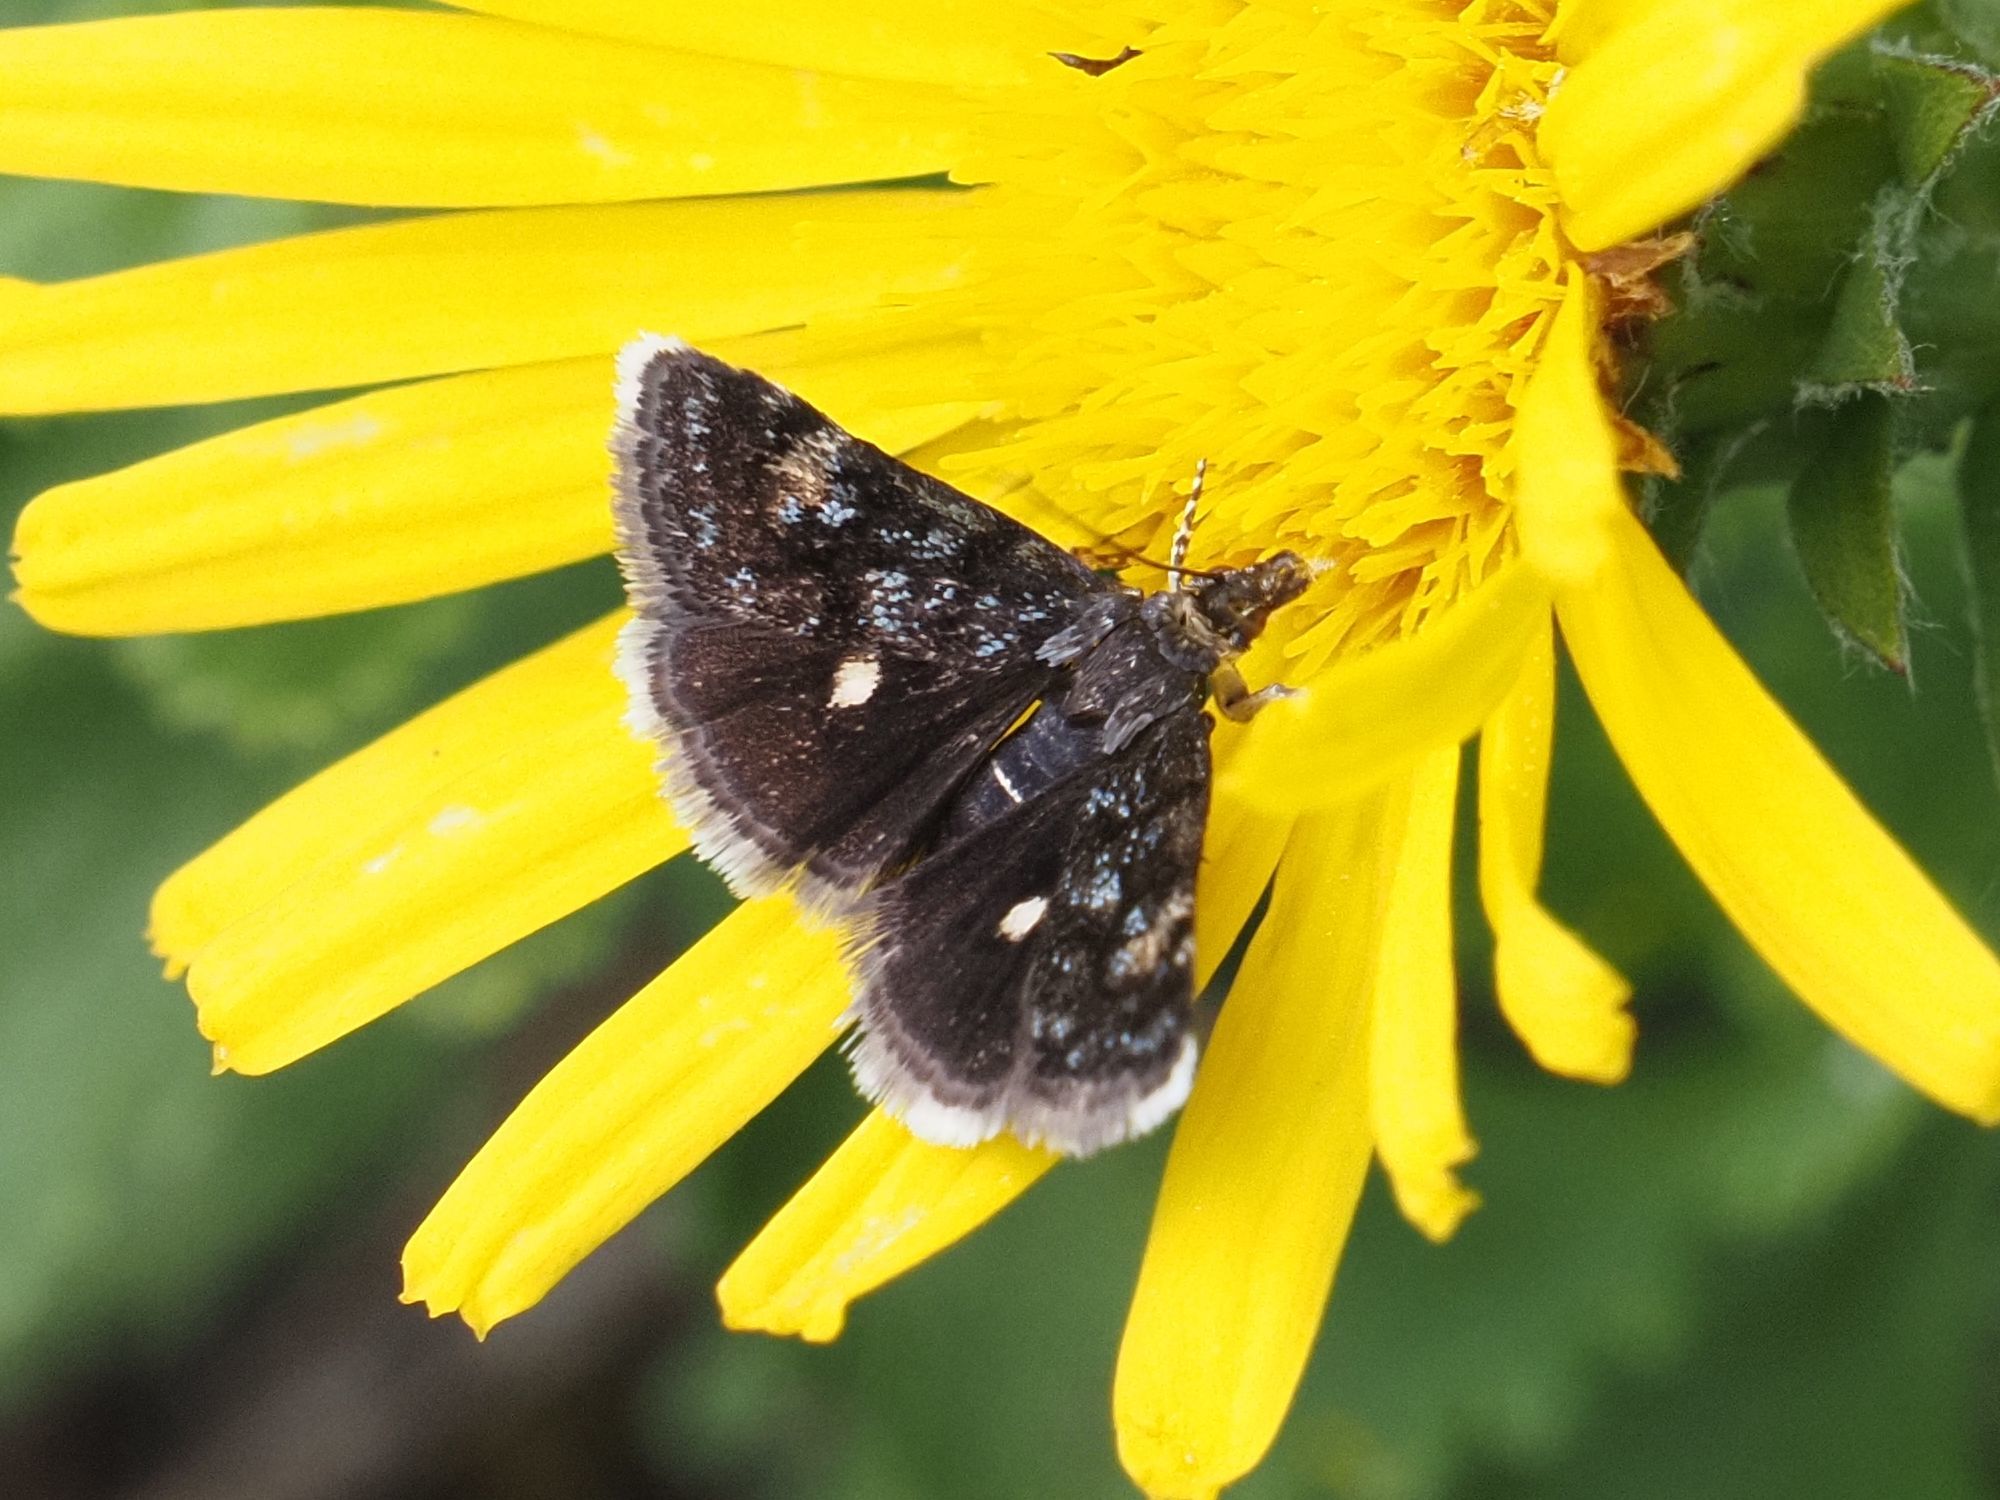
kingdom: Animalia
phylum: Arthropoda
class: Insecta
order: Lepidoptera
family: Crambidae
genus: Heliothela
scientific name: Heliothela wulfeniana
